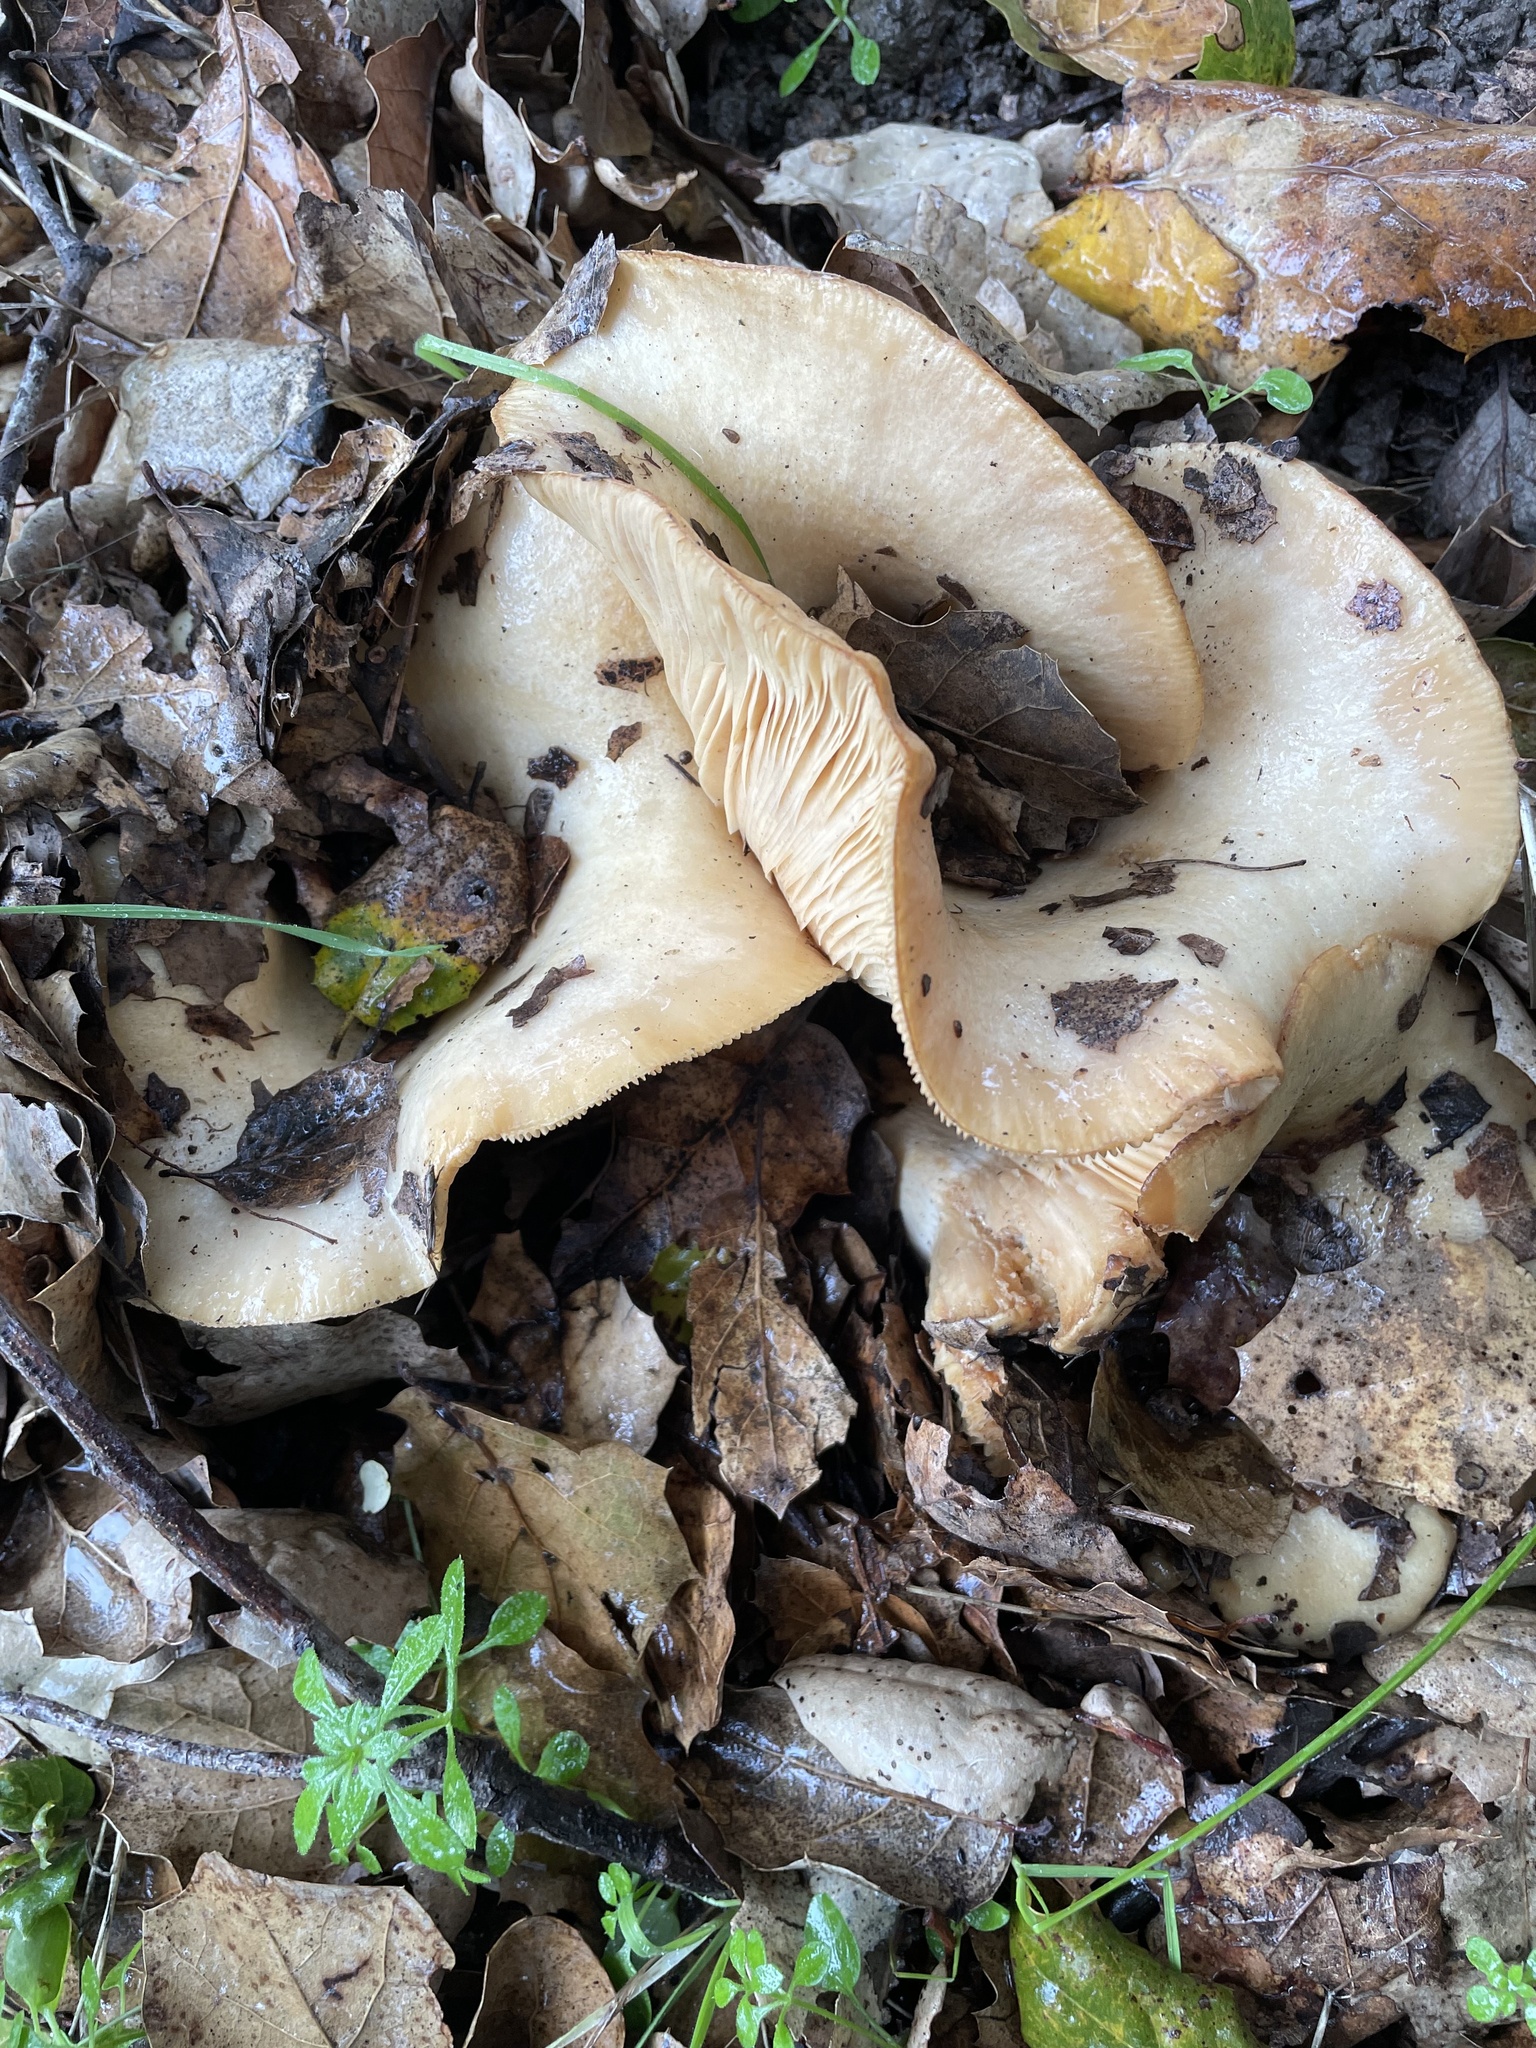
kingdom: Fungi
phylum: Basidiomycota
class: Agaricomycetes
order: Russulales
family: Russulaceae
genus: Lactarius
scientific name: Lactarius alnicola
